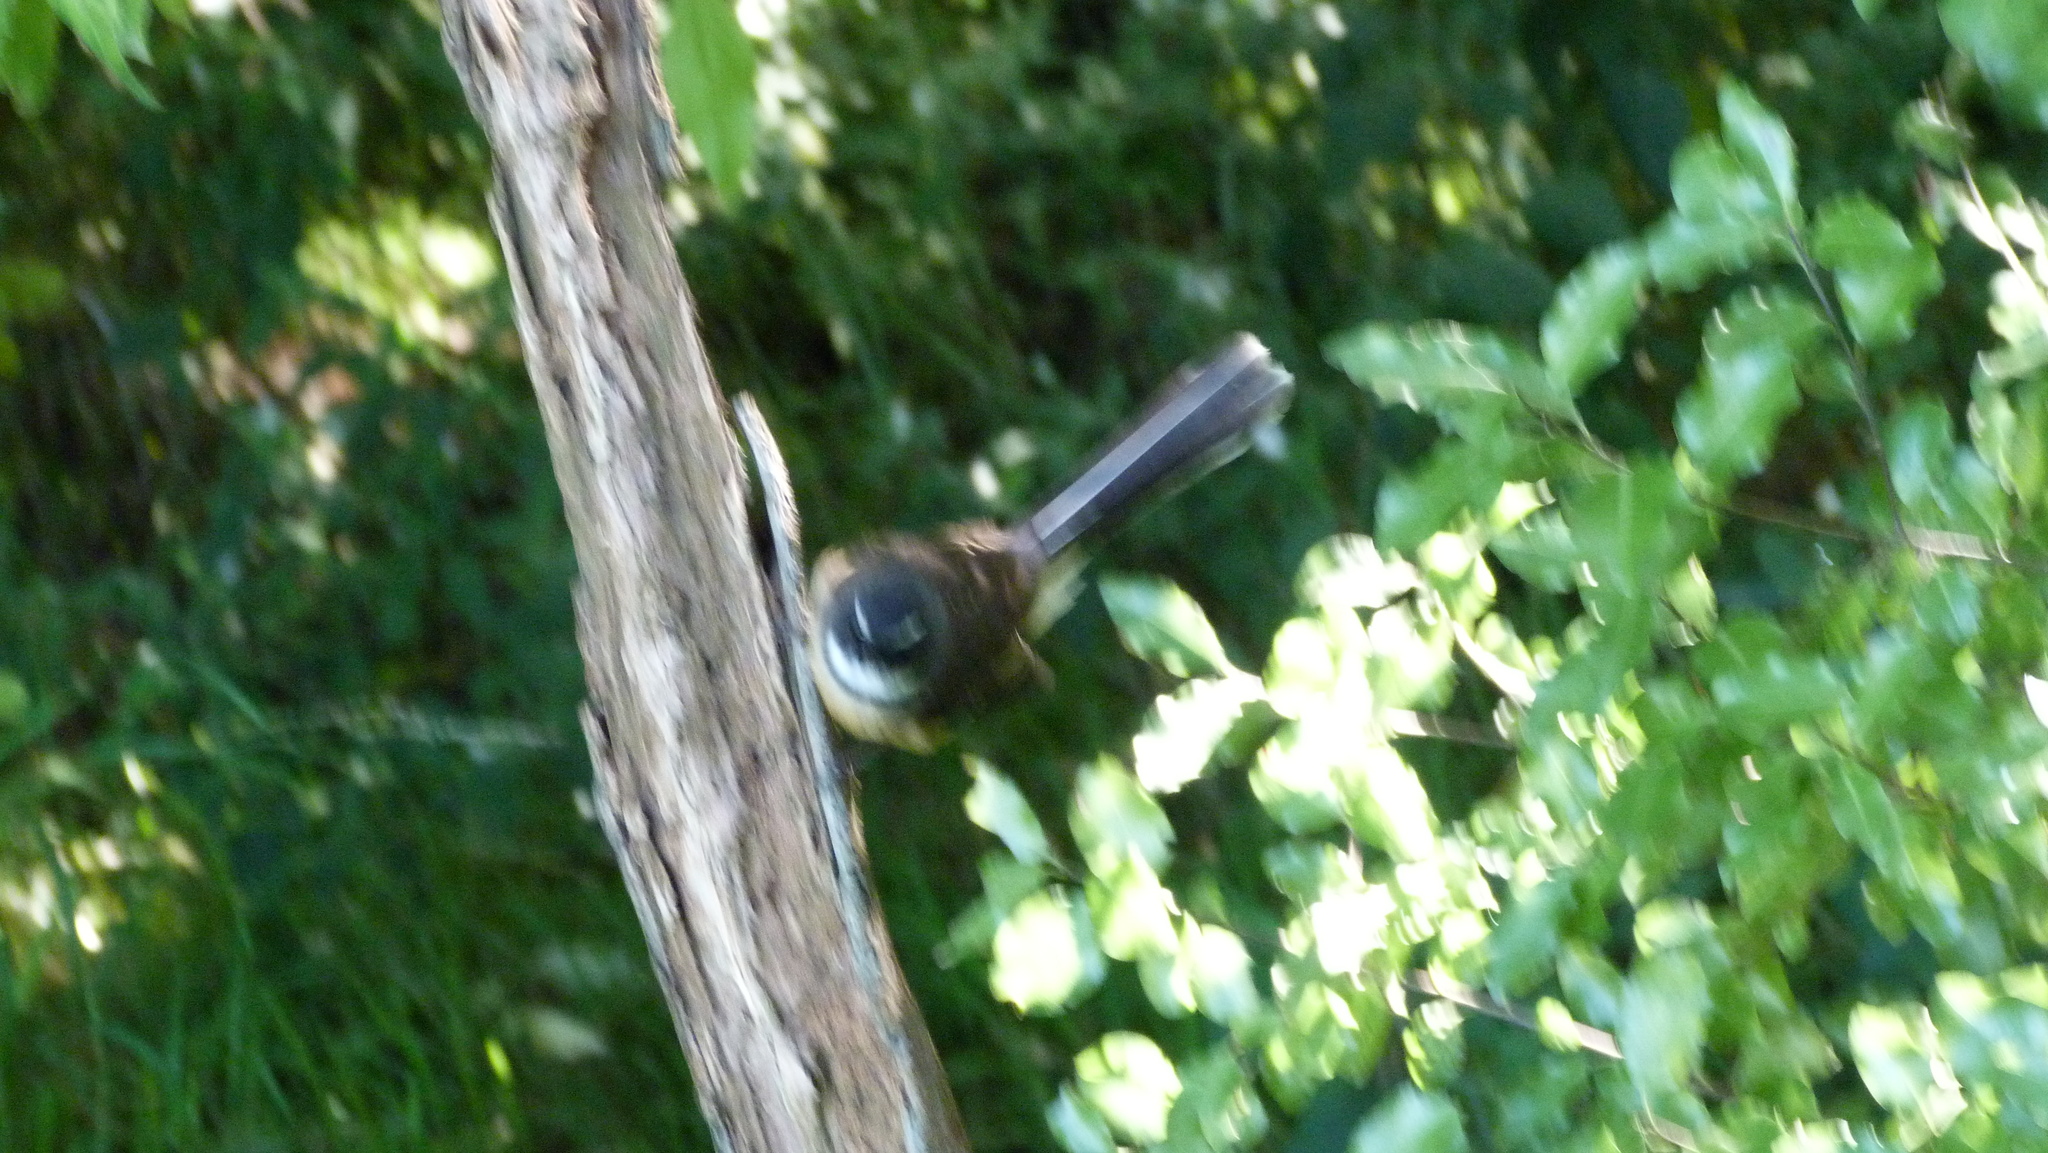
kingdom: Animalia
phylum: Chordata
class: Aves
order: Passeriformes
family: Rhipiduridae
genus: Rhipidura
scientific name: Rhipidura fuliginosa
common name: New zealand fantail
